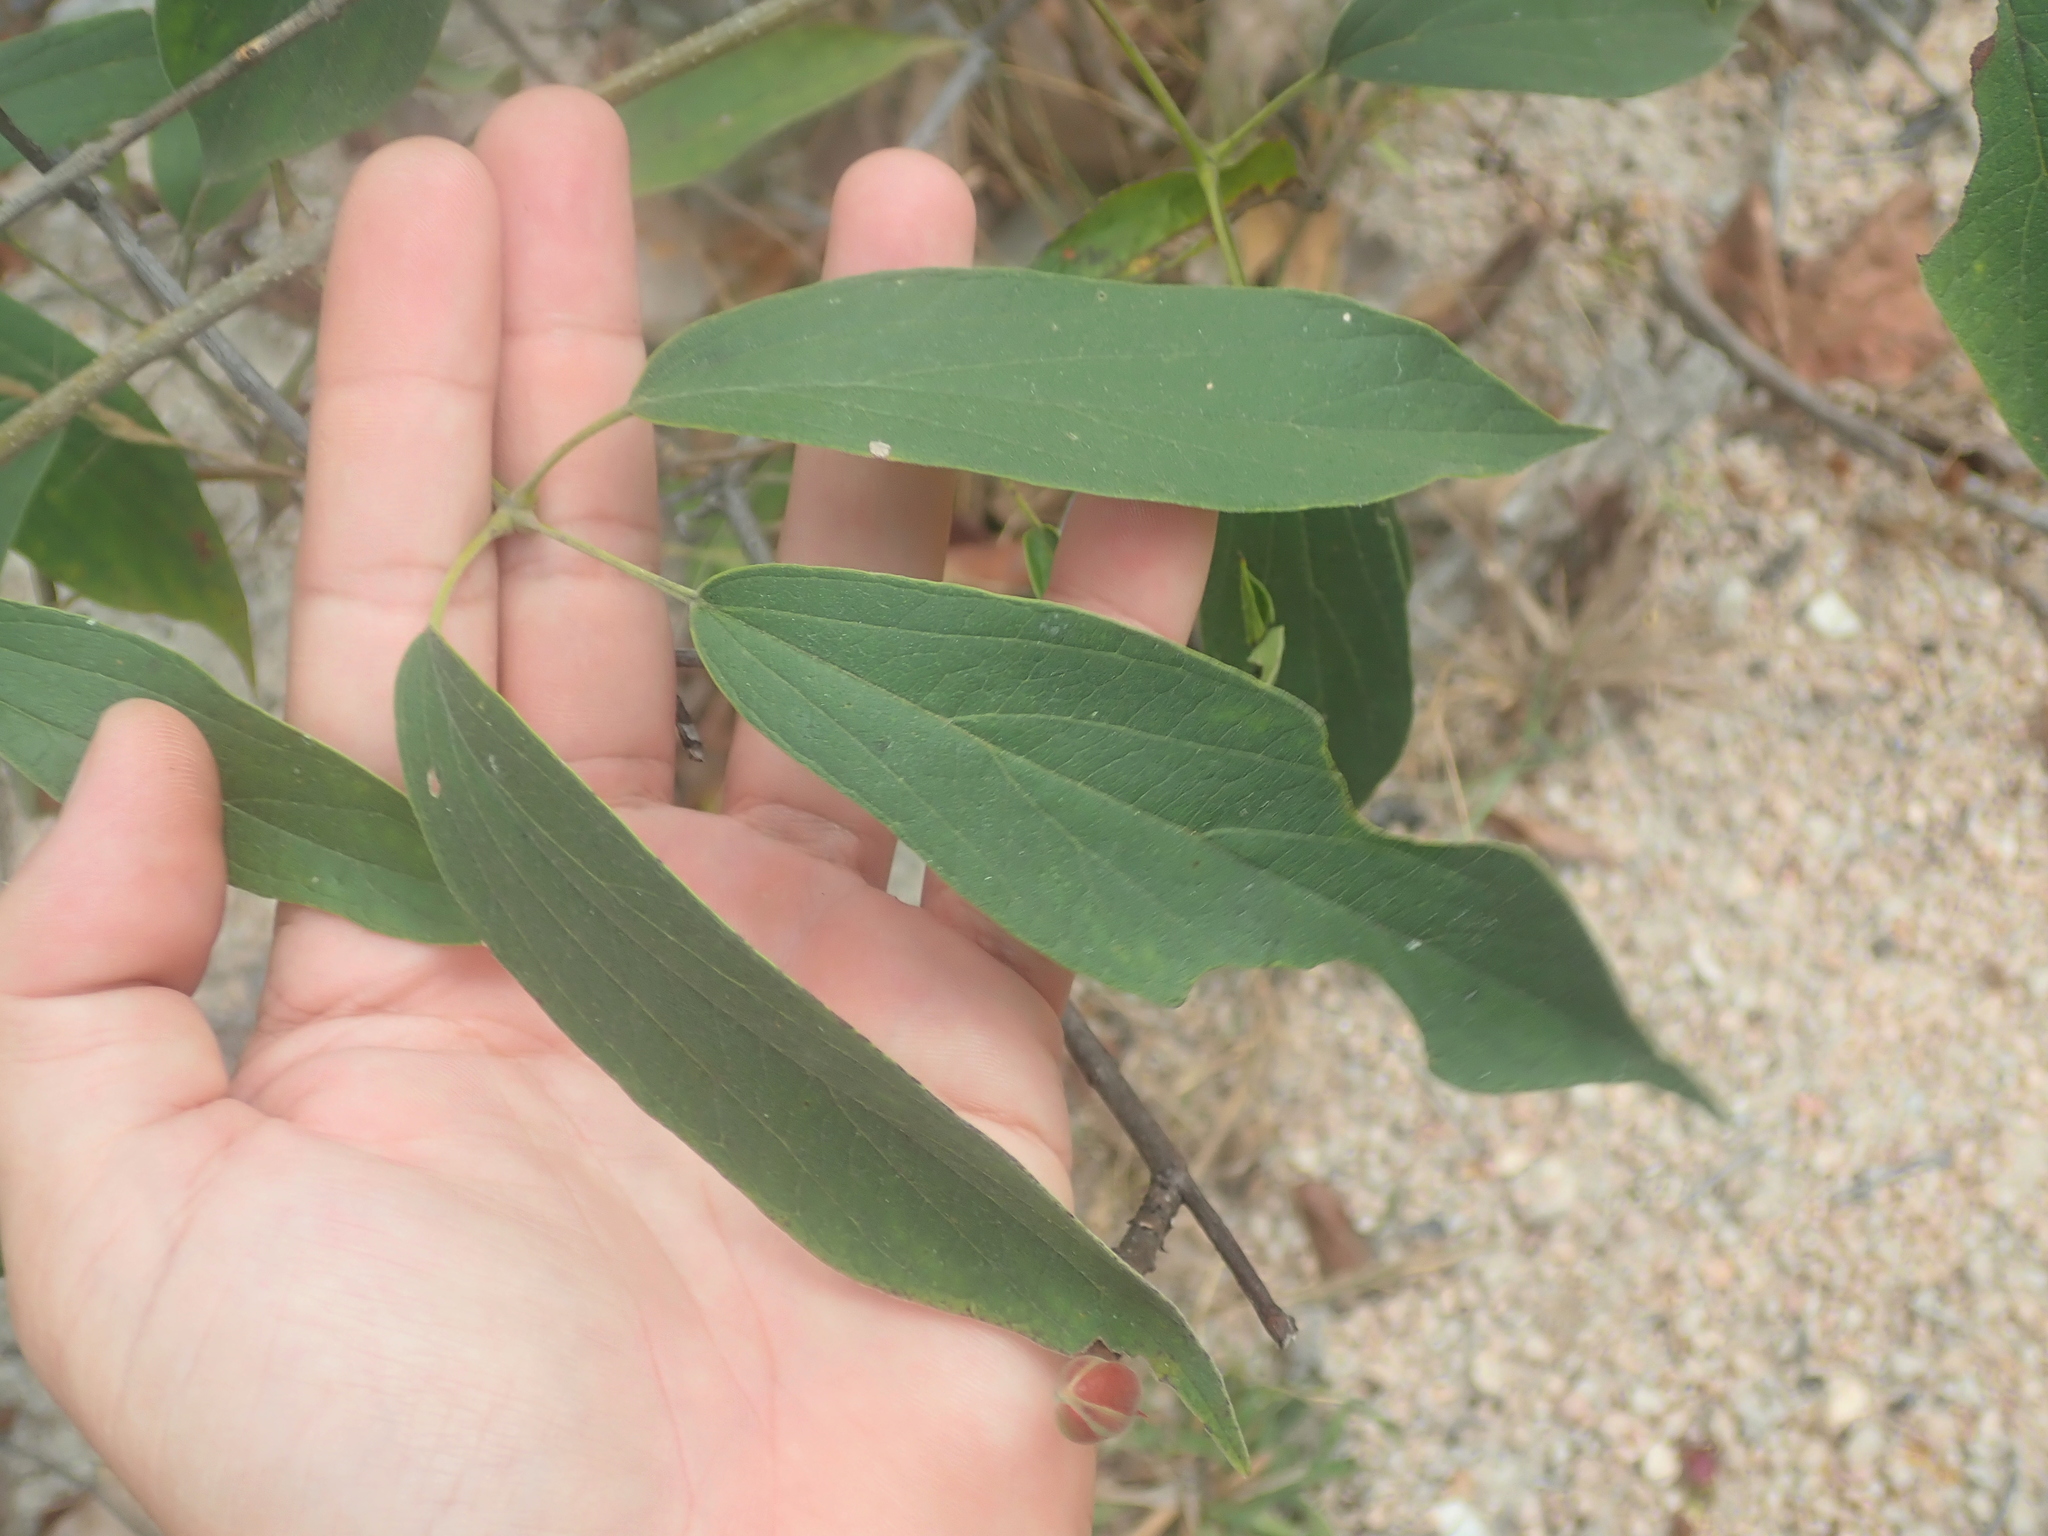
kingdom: Plantae
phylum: Tracheophyta
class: Magnoliopsida
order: Lamiales
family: Bignoniaceae
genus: Cuspidaria
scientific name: Cuspidaria sceptrum
